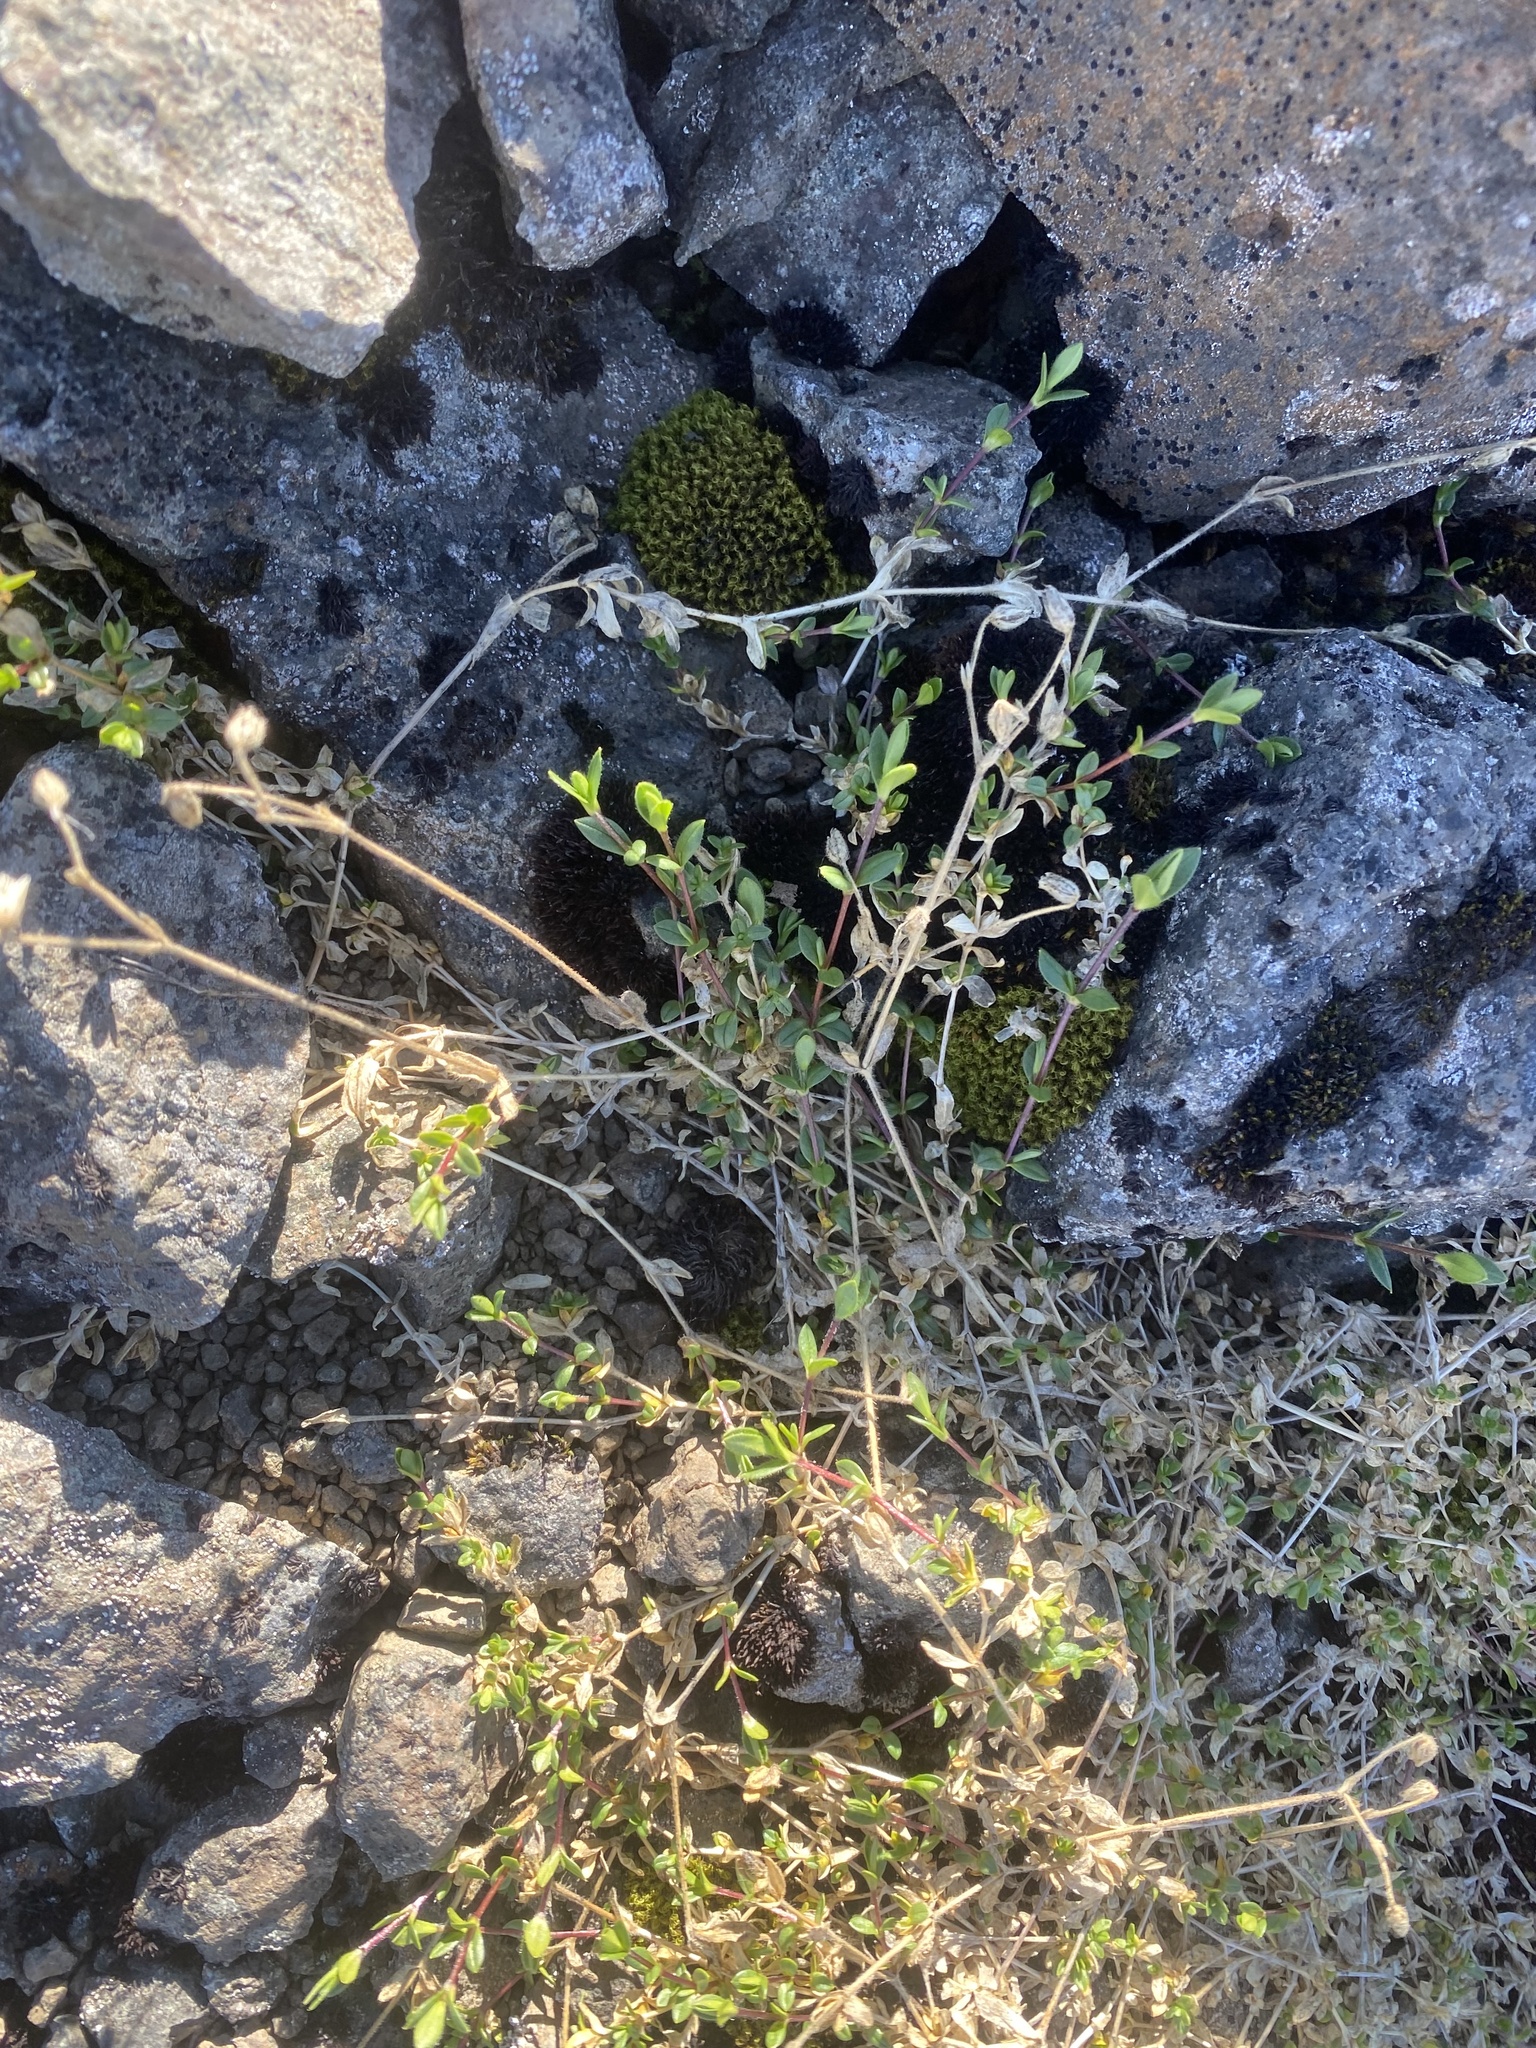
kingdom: Plantae
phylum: Tracheophyta
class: Magnoliopsida
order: Caryophyllales
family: Caryophyllaceae
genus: Cerastium
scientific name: Cerastium regelii
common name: Regel's chickweed
